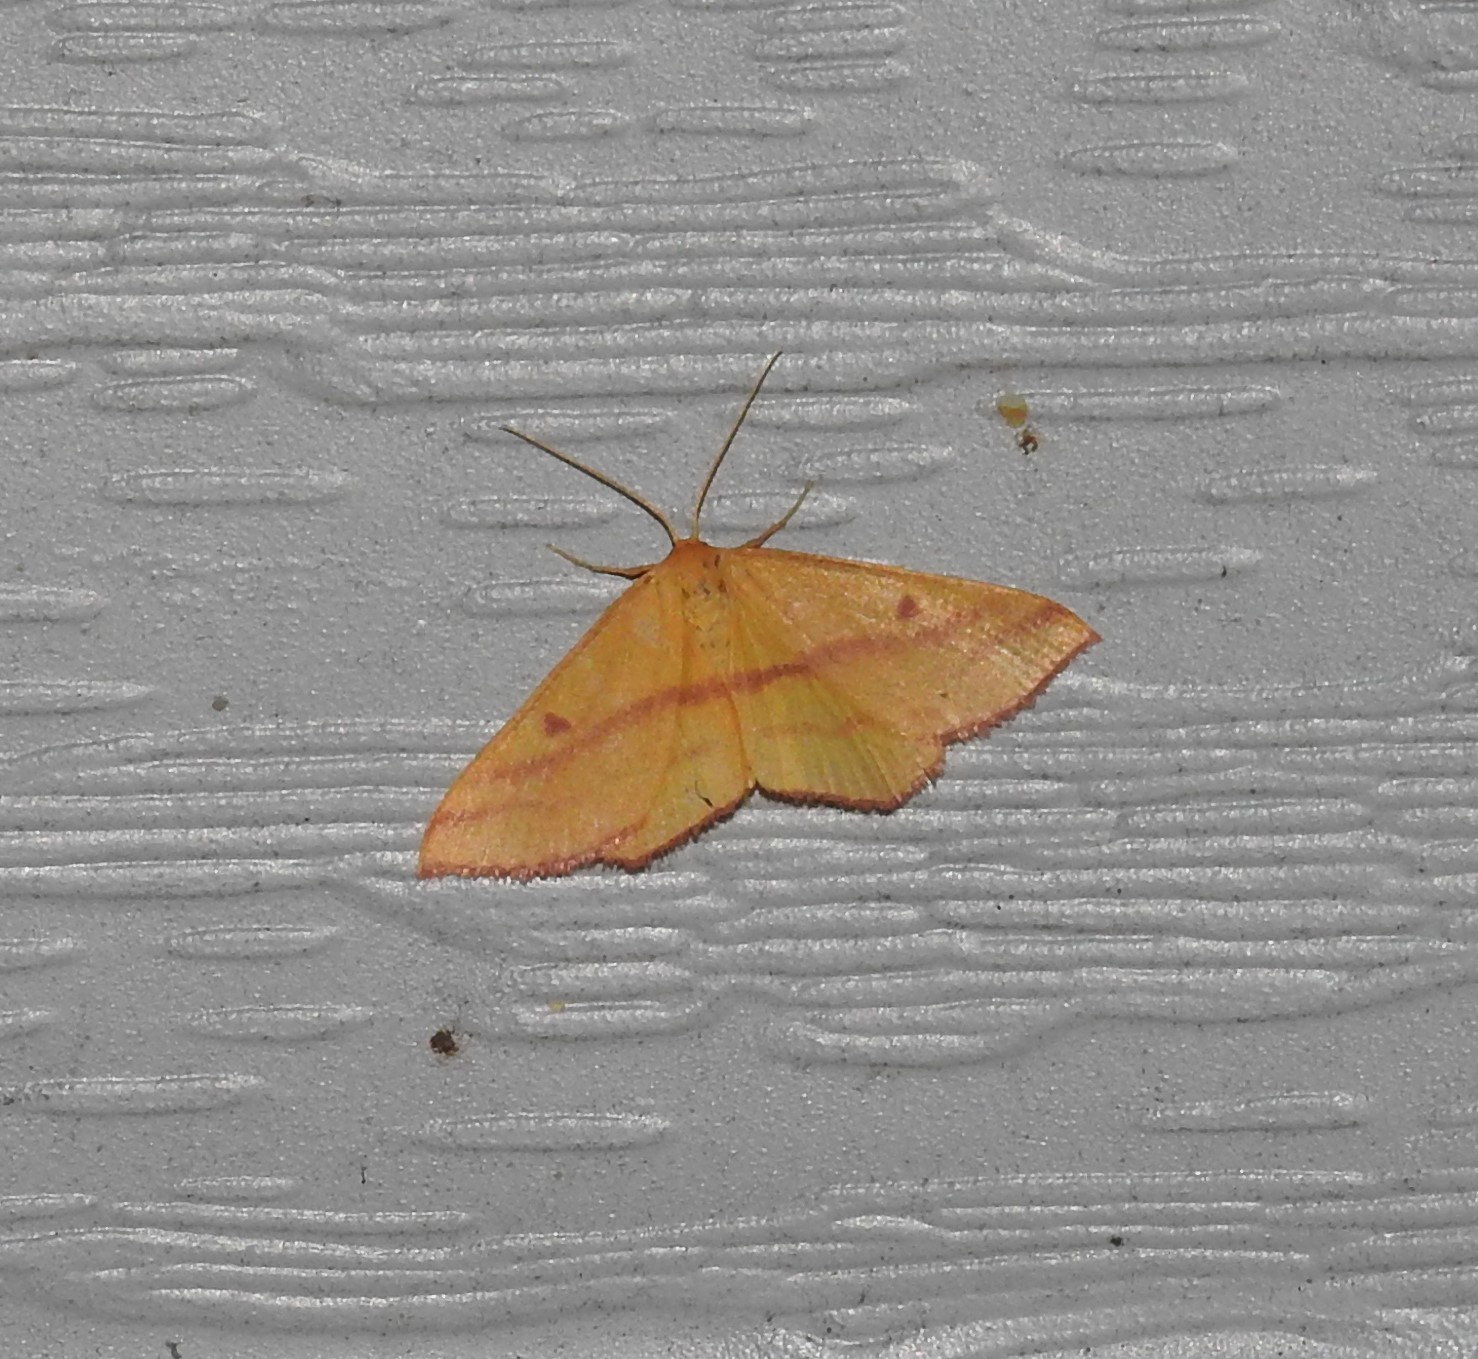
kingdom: Animalia
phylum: Arthropoda
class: Insecta
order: Lepidoptera
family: Geometridae
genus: Haematopis
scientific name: Haematopis grataria
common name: Chickweed geometer
